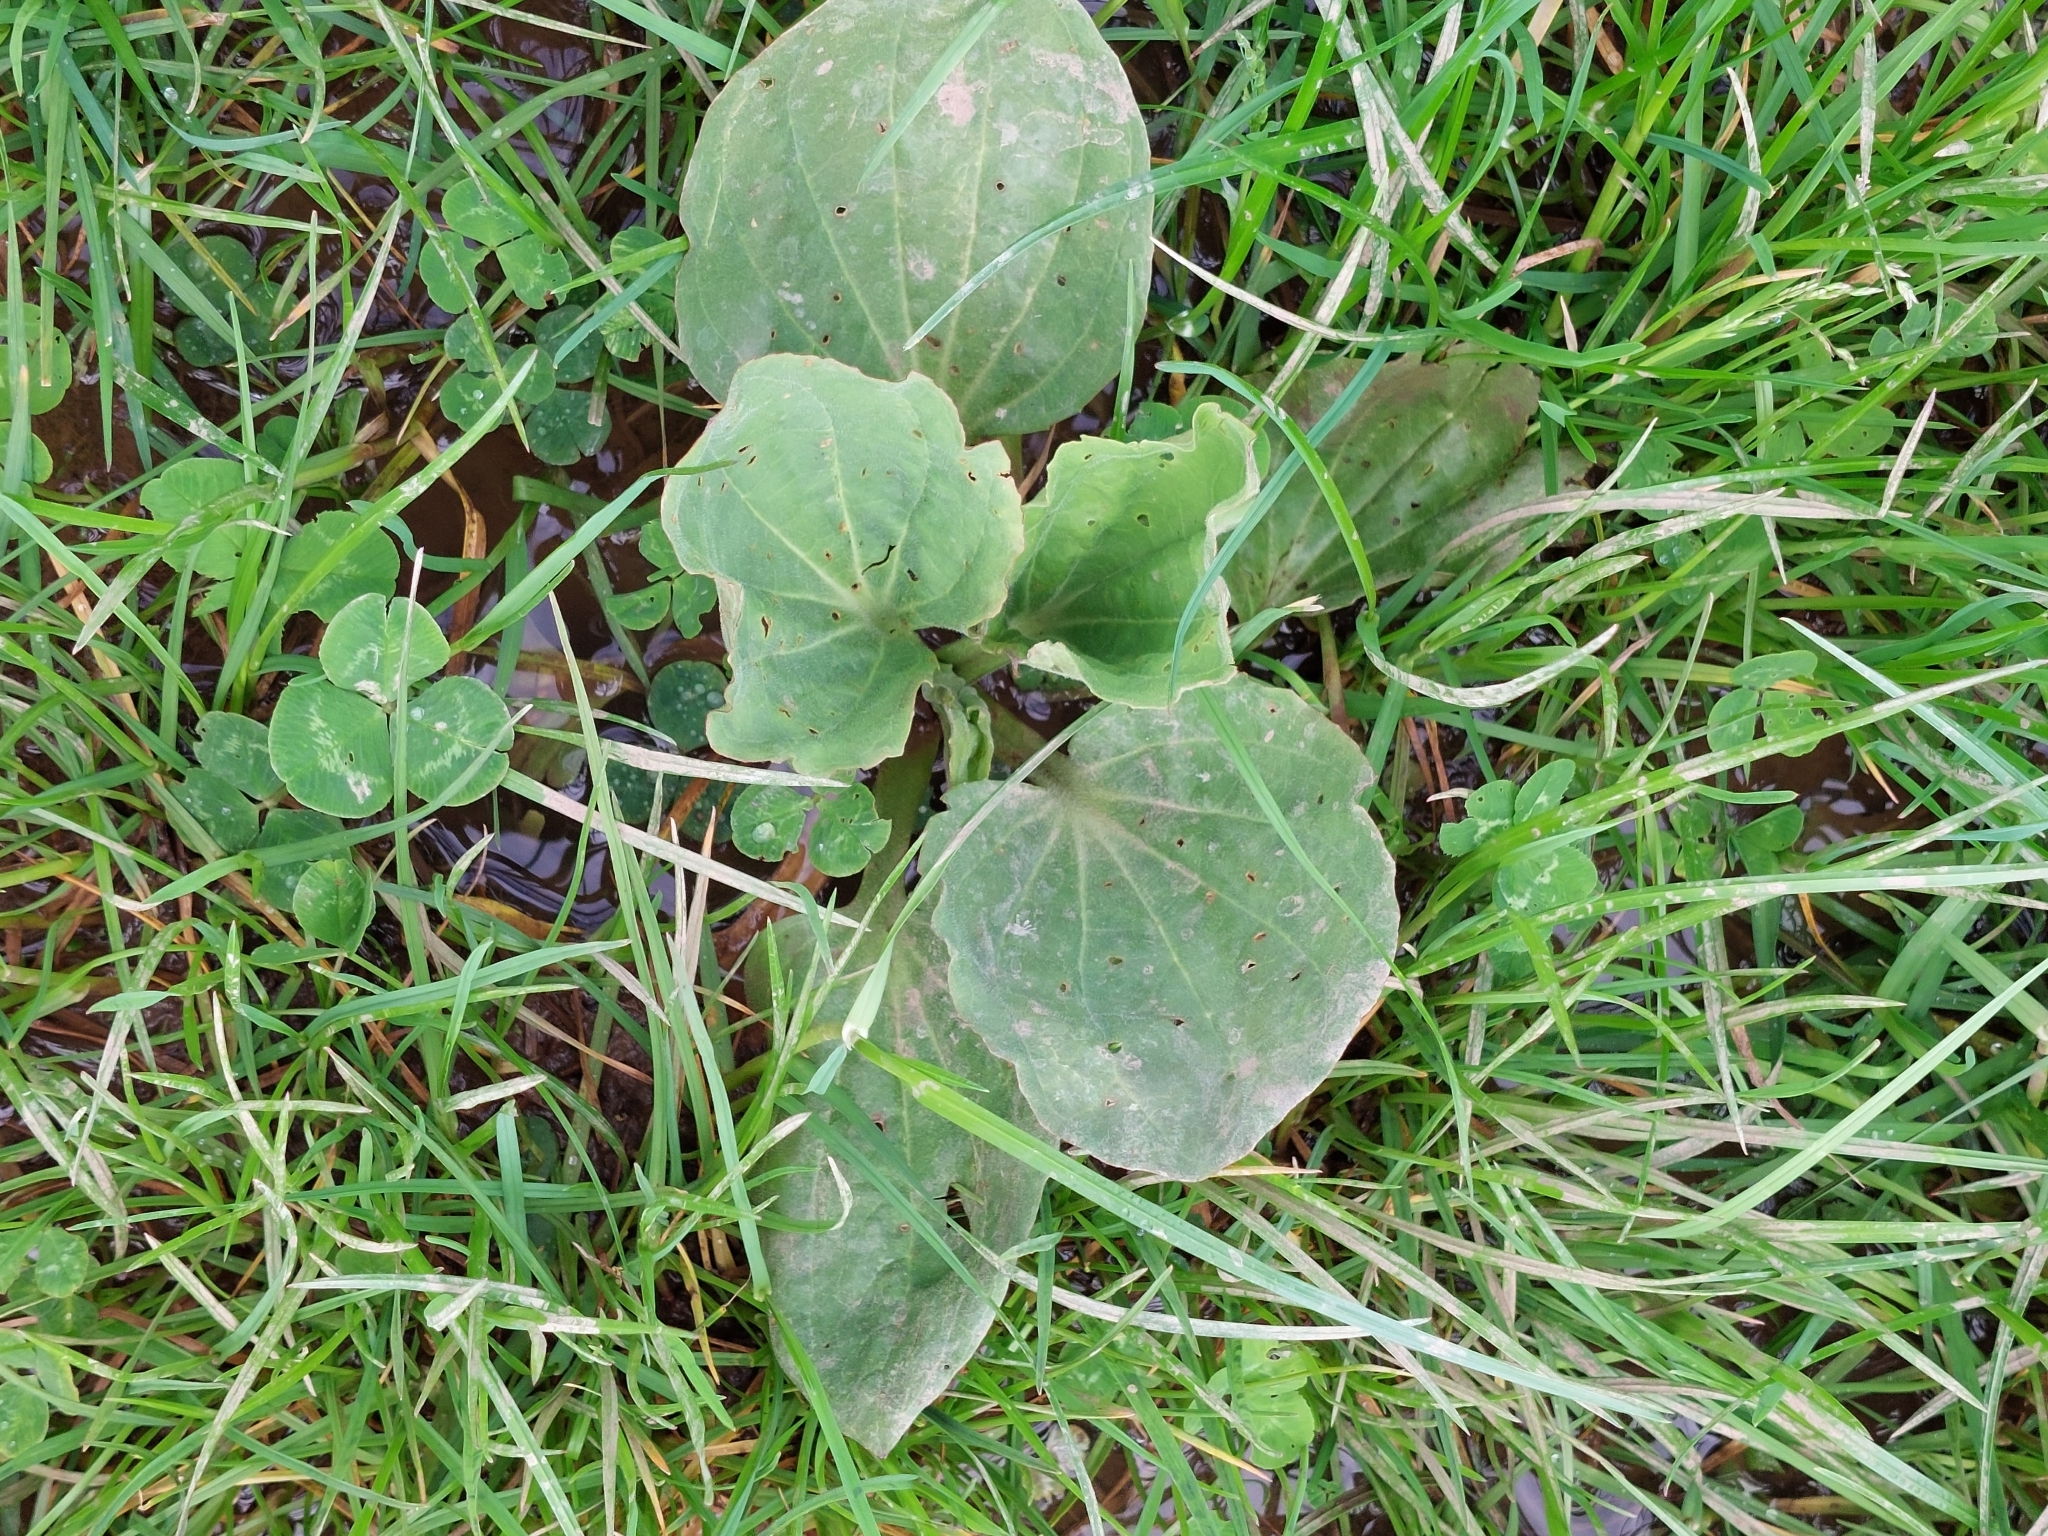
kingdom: Plantae
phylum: Tracheophyta
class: Magnoliopsida
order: Lamiales
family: Plantaginaceae
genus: Plantago
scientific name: Plantago major
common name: Common plantain
